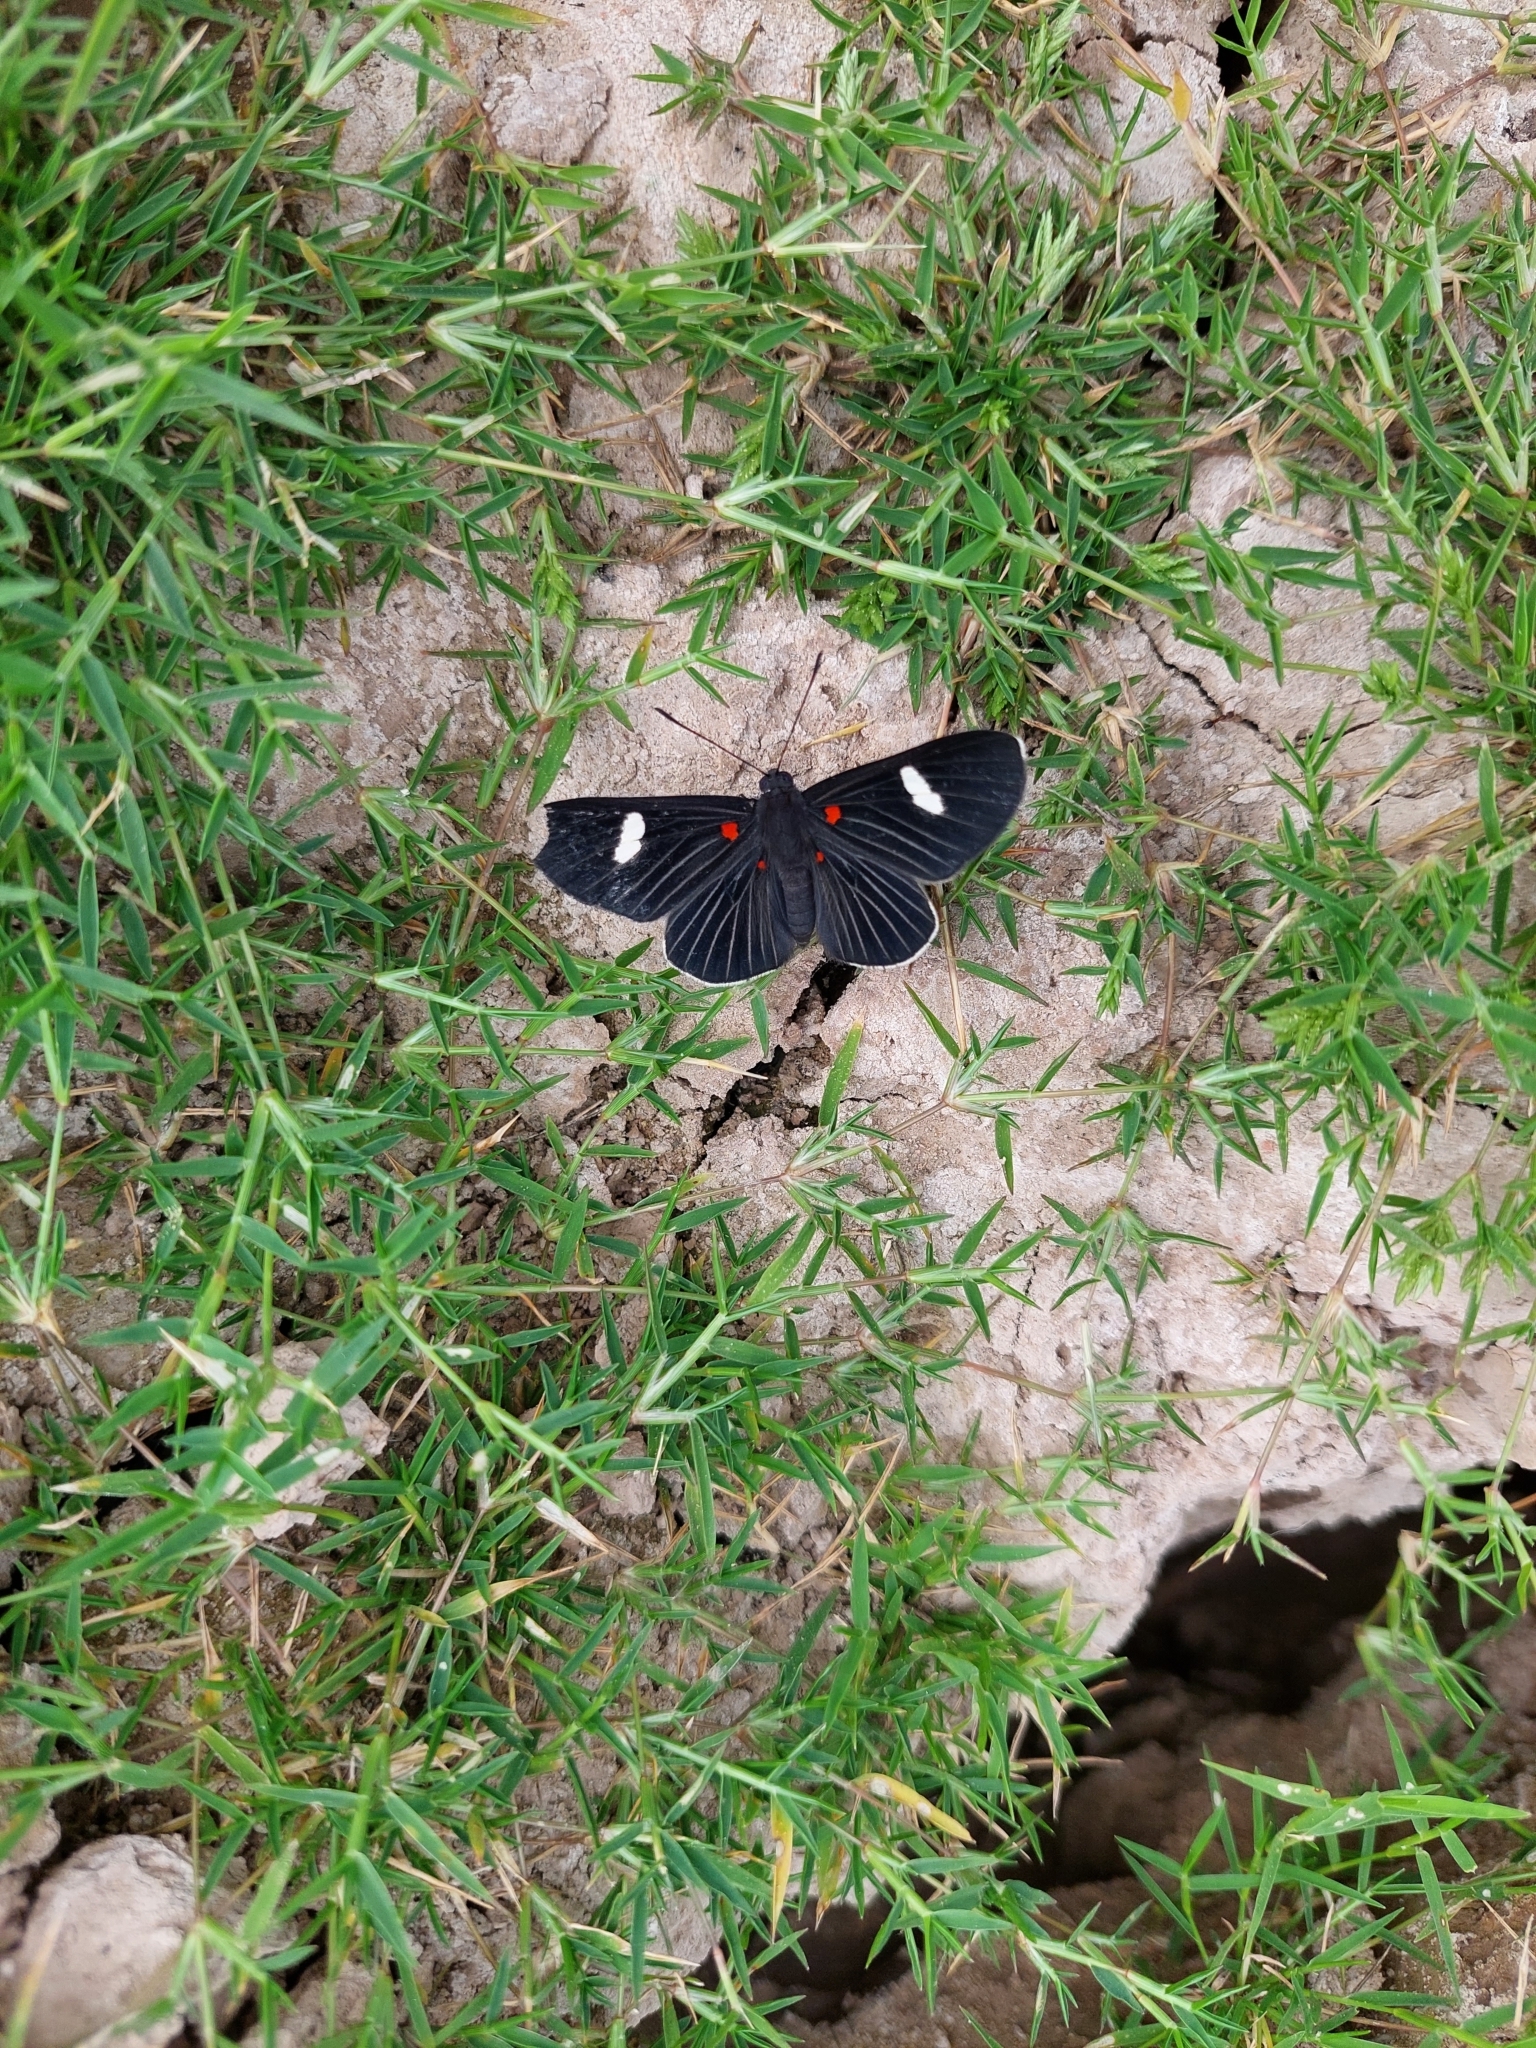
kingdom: Animalia
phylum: Arthropoda
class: Insecta
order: Lepidoptera
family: Lycaenidae
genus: Melanis
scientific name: Melanis aegates
